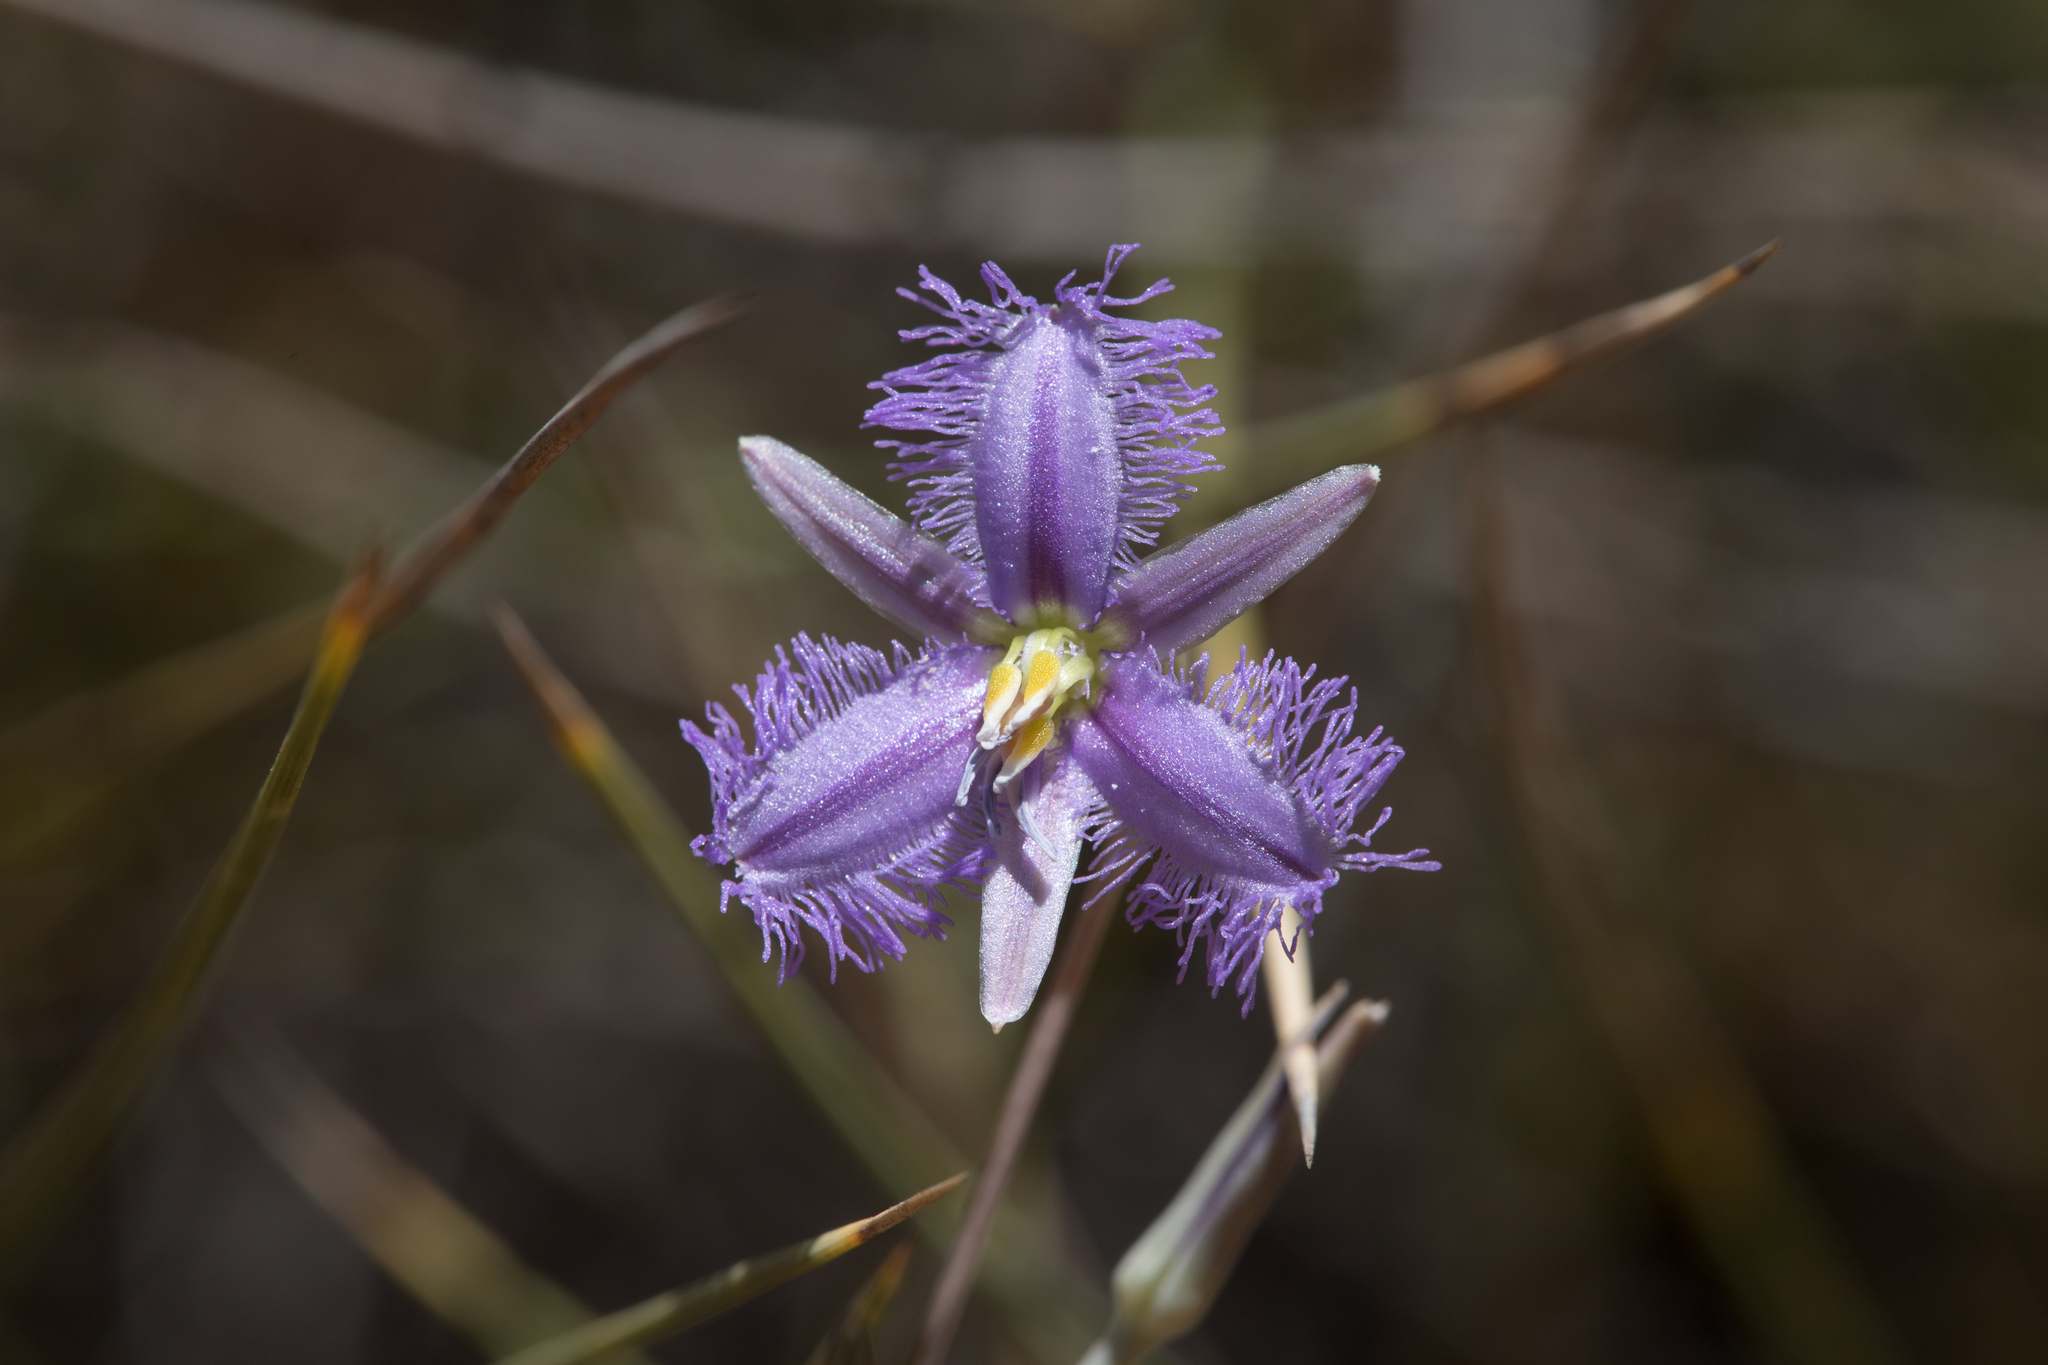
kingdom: Plantae
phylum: Tracheophyta
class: Liliopsida
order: Asparagales
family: Asparagaceae
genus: Thysanotus
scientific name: Thysanotus baueri
